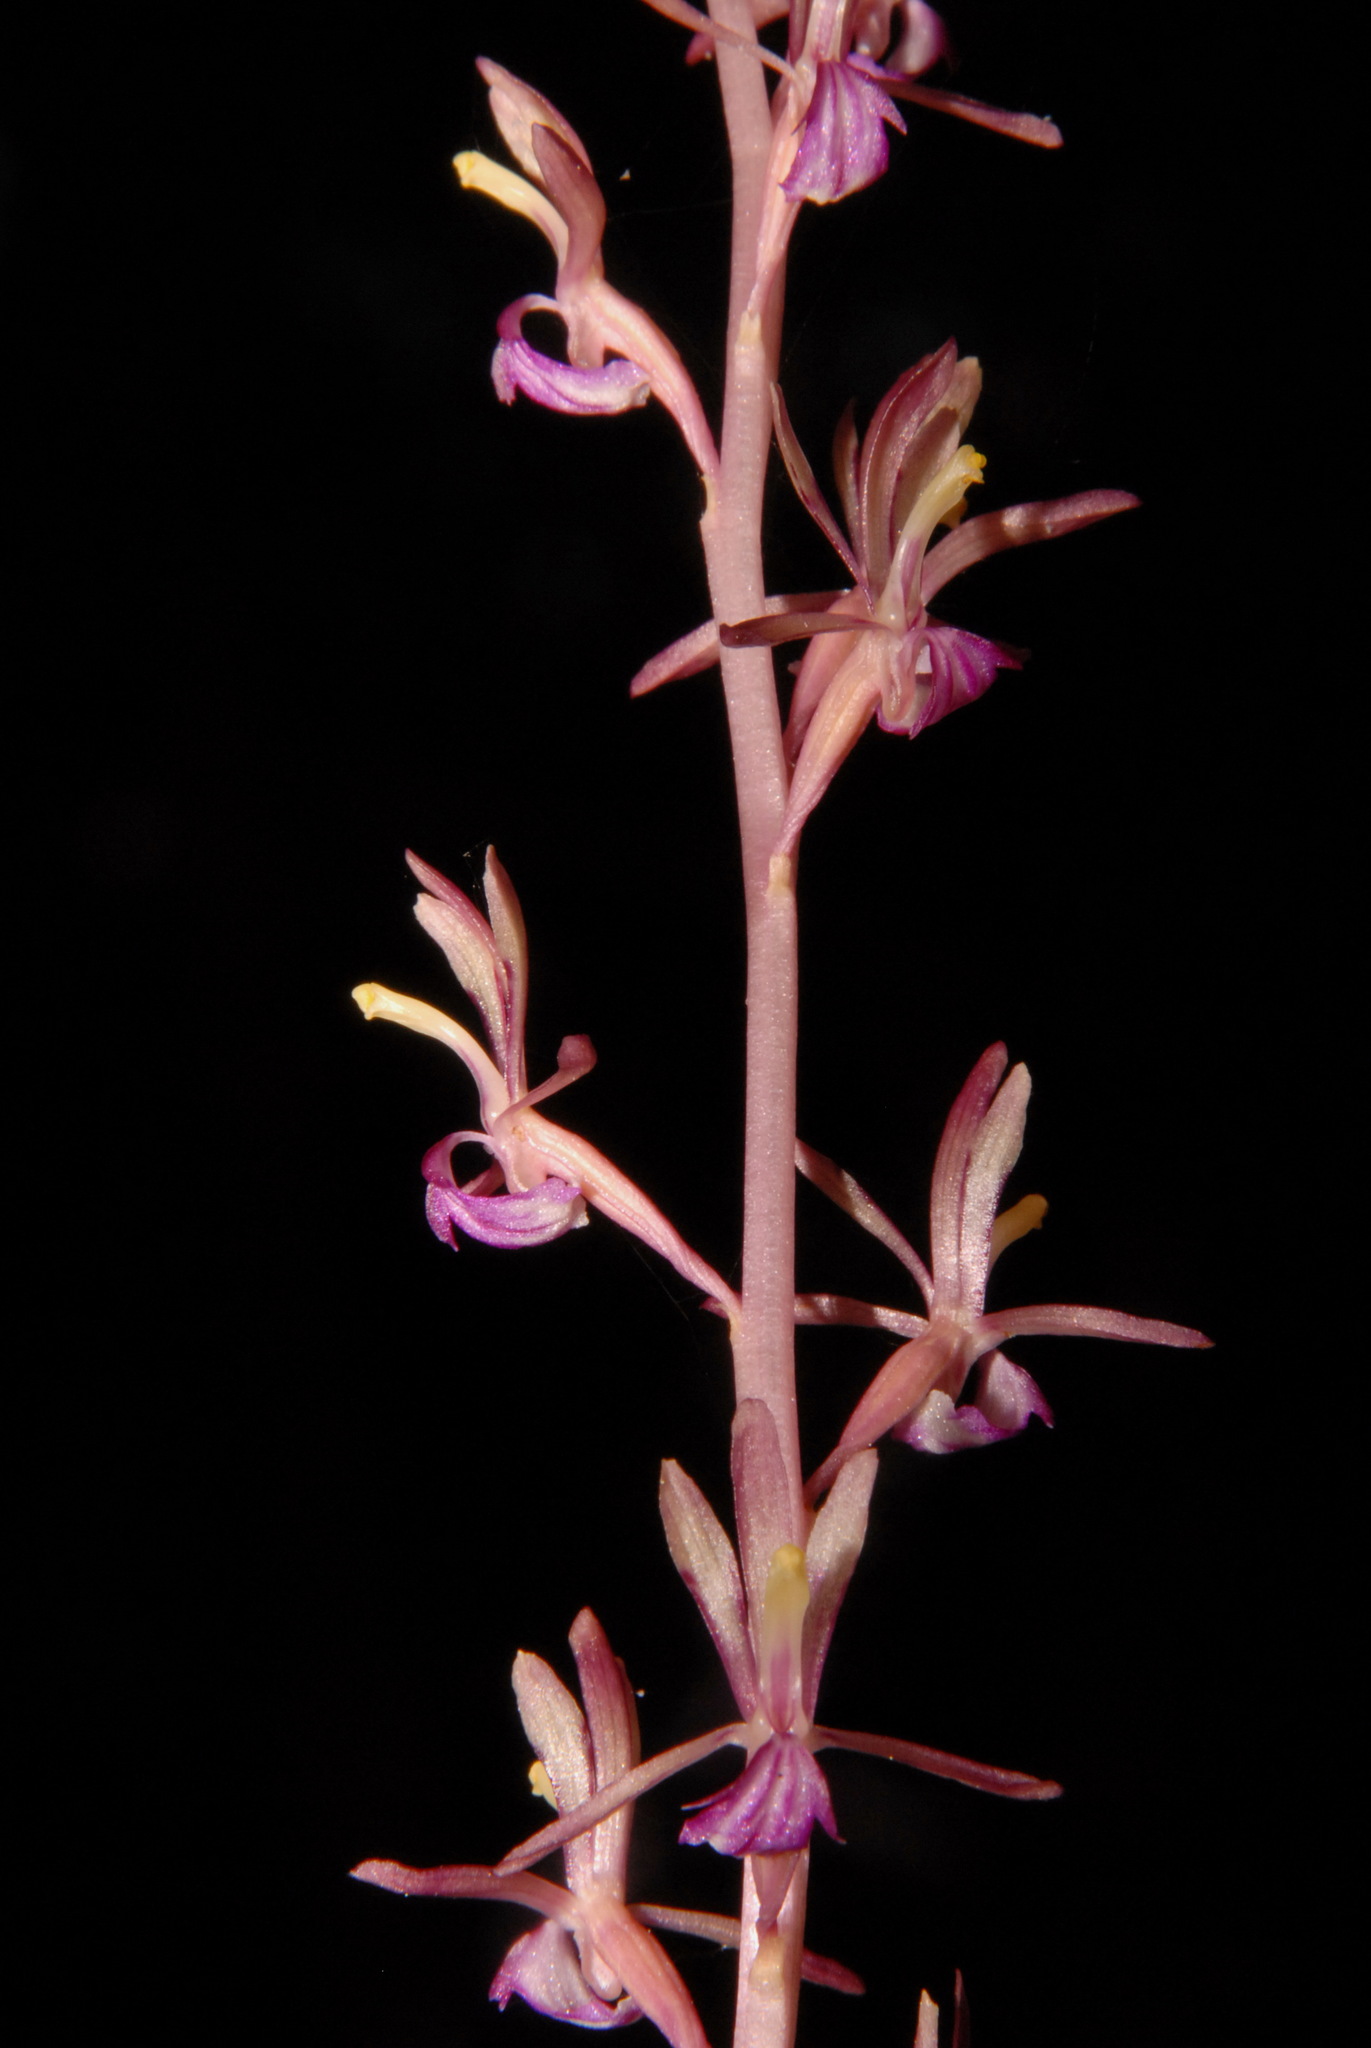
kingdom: Plantae
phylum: Tracheophyta
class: Liliopsida
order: Asparagales
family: Orchidaceae
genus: Corallorhiza
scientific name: Corallorhiza mertensiana
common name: Pacific coralroot
